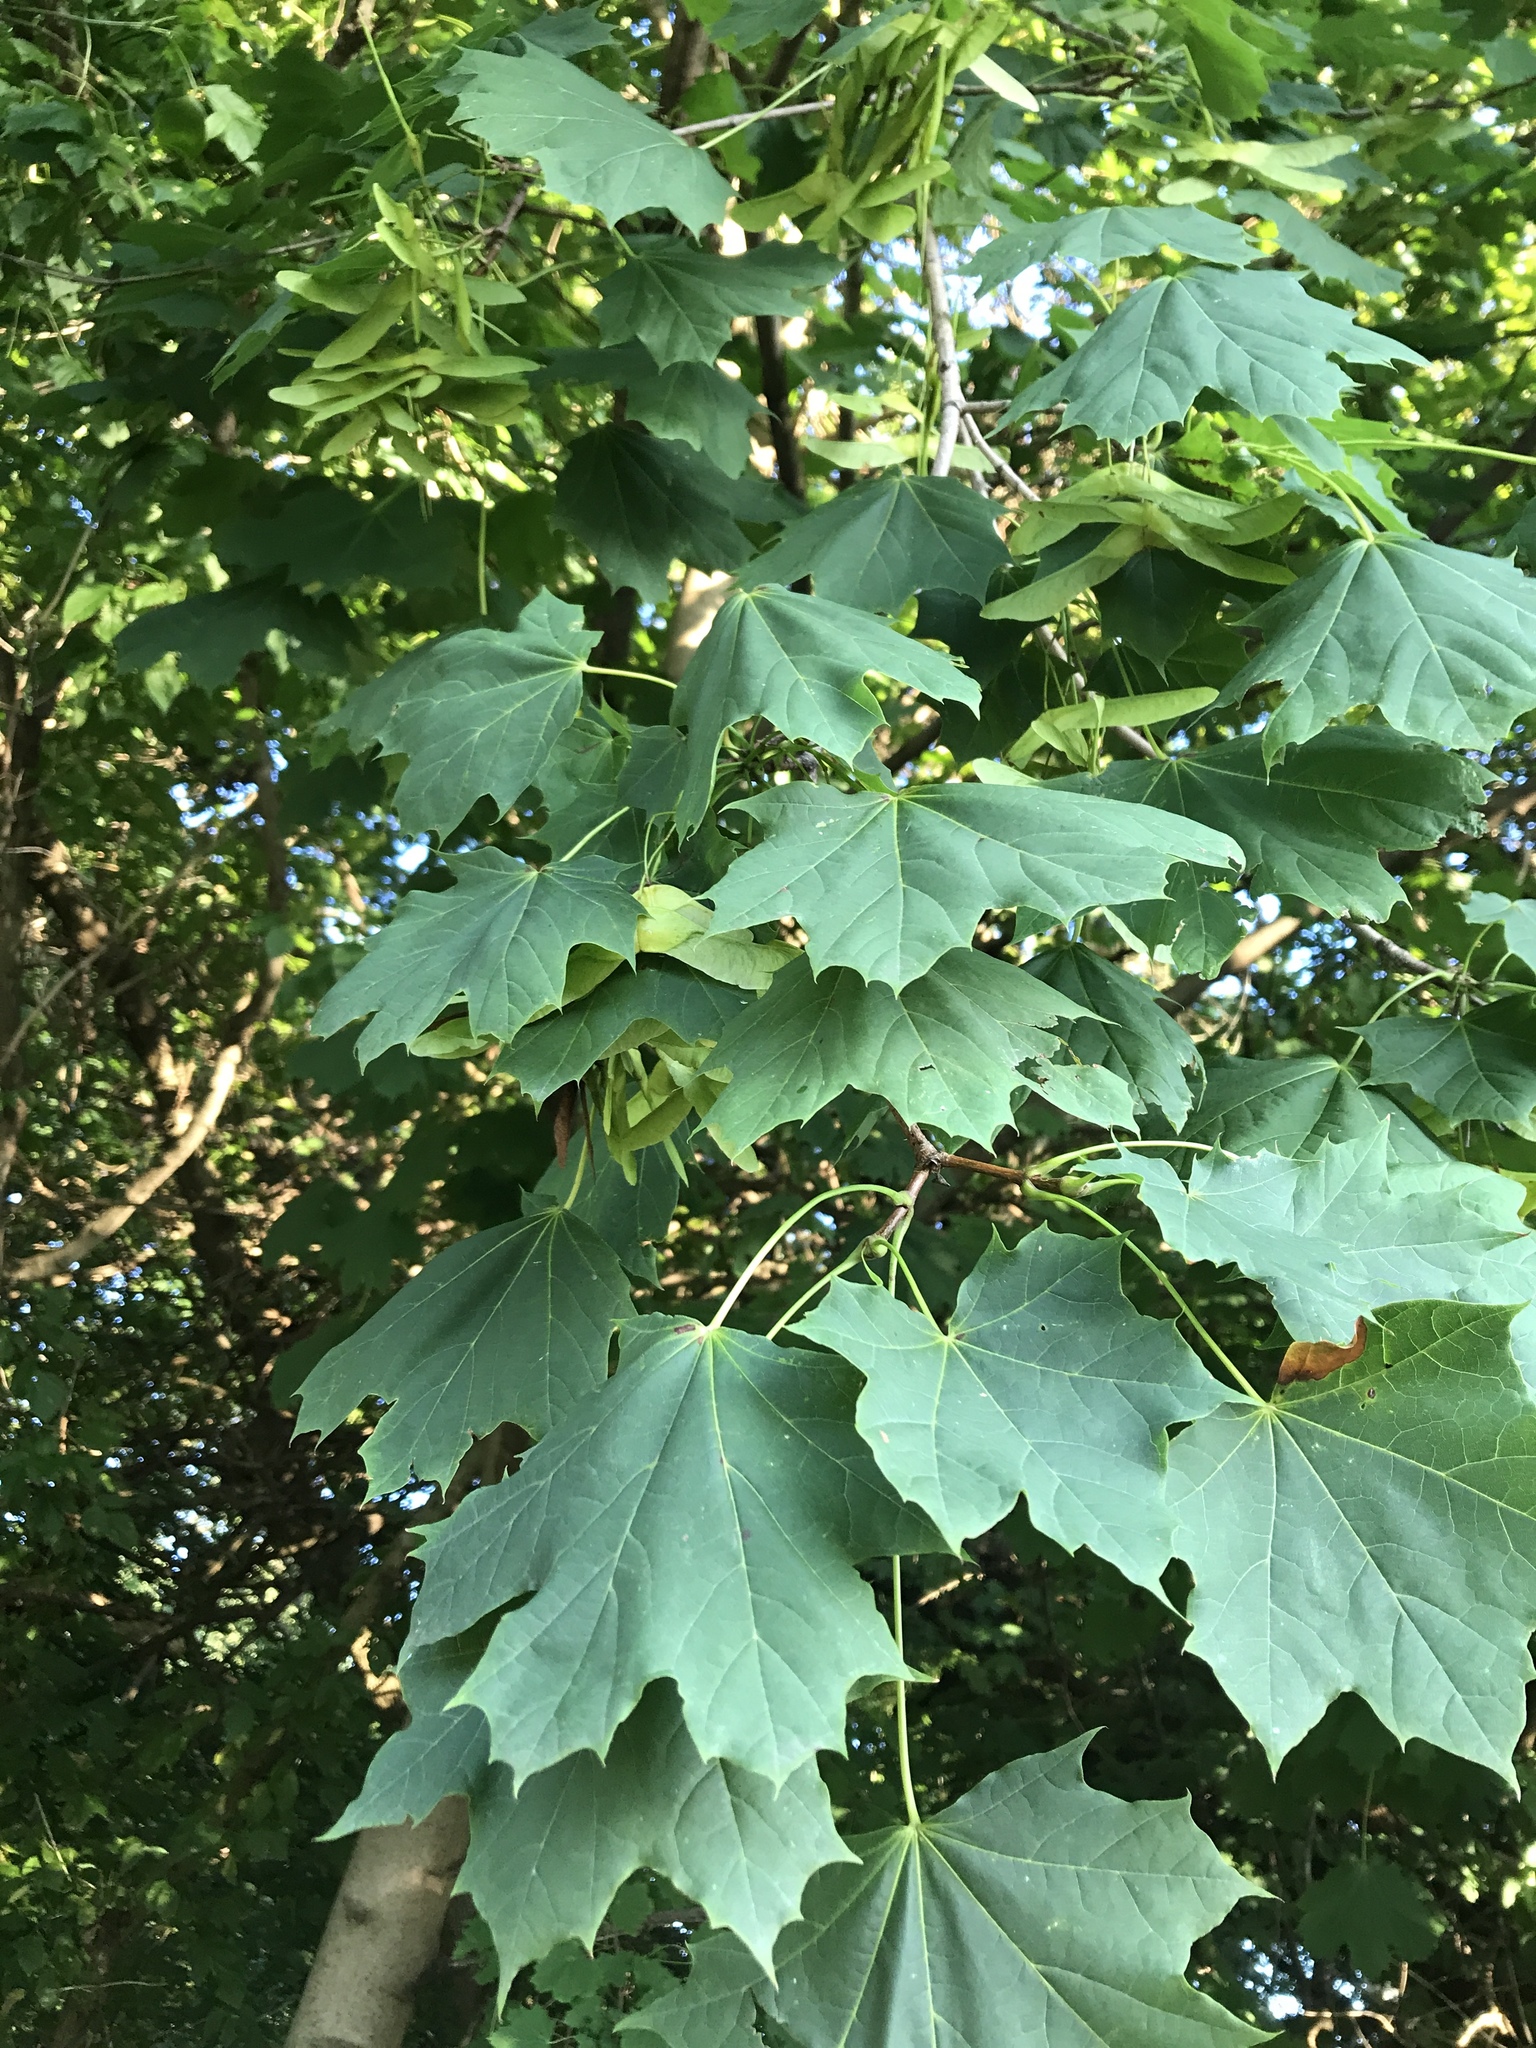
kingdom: Plantae
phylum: Tracheophyta
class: Magnoliopsida
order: Sapindales
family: Sapindaceae
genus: Acer
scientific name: Acer platanoides
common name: Norway maple
